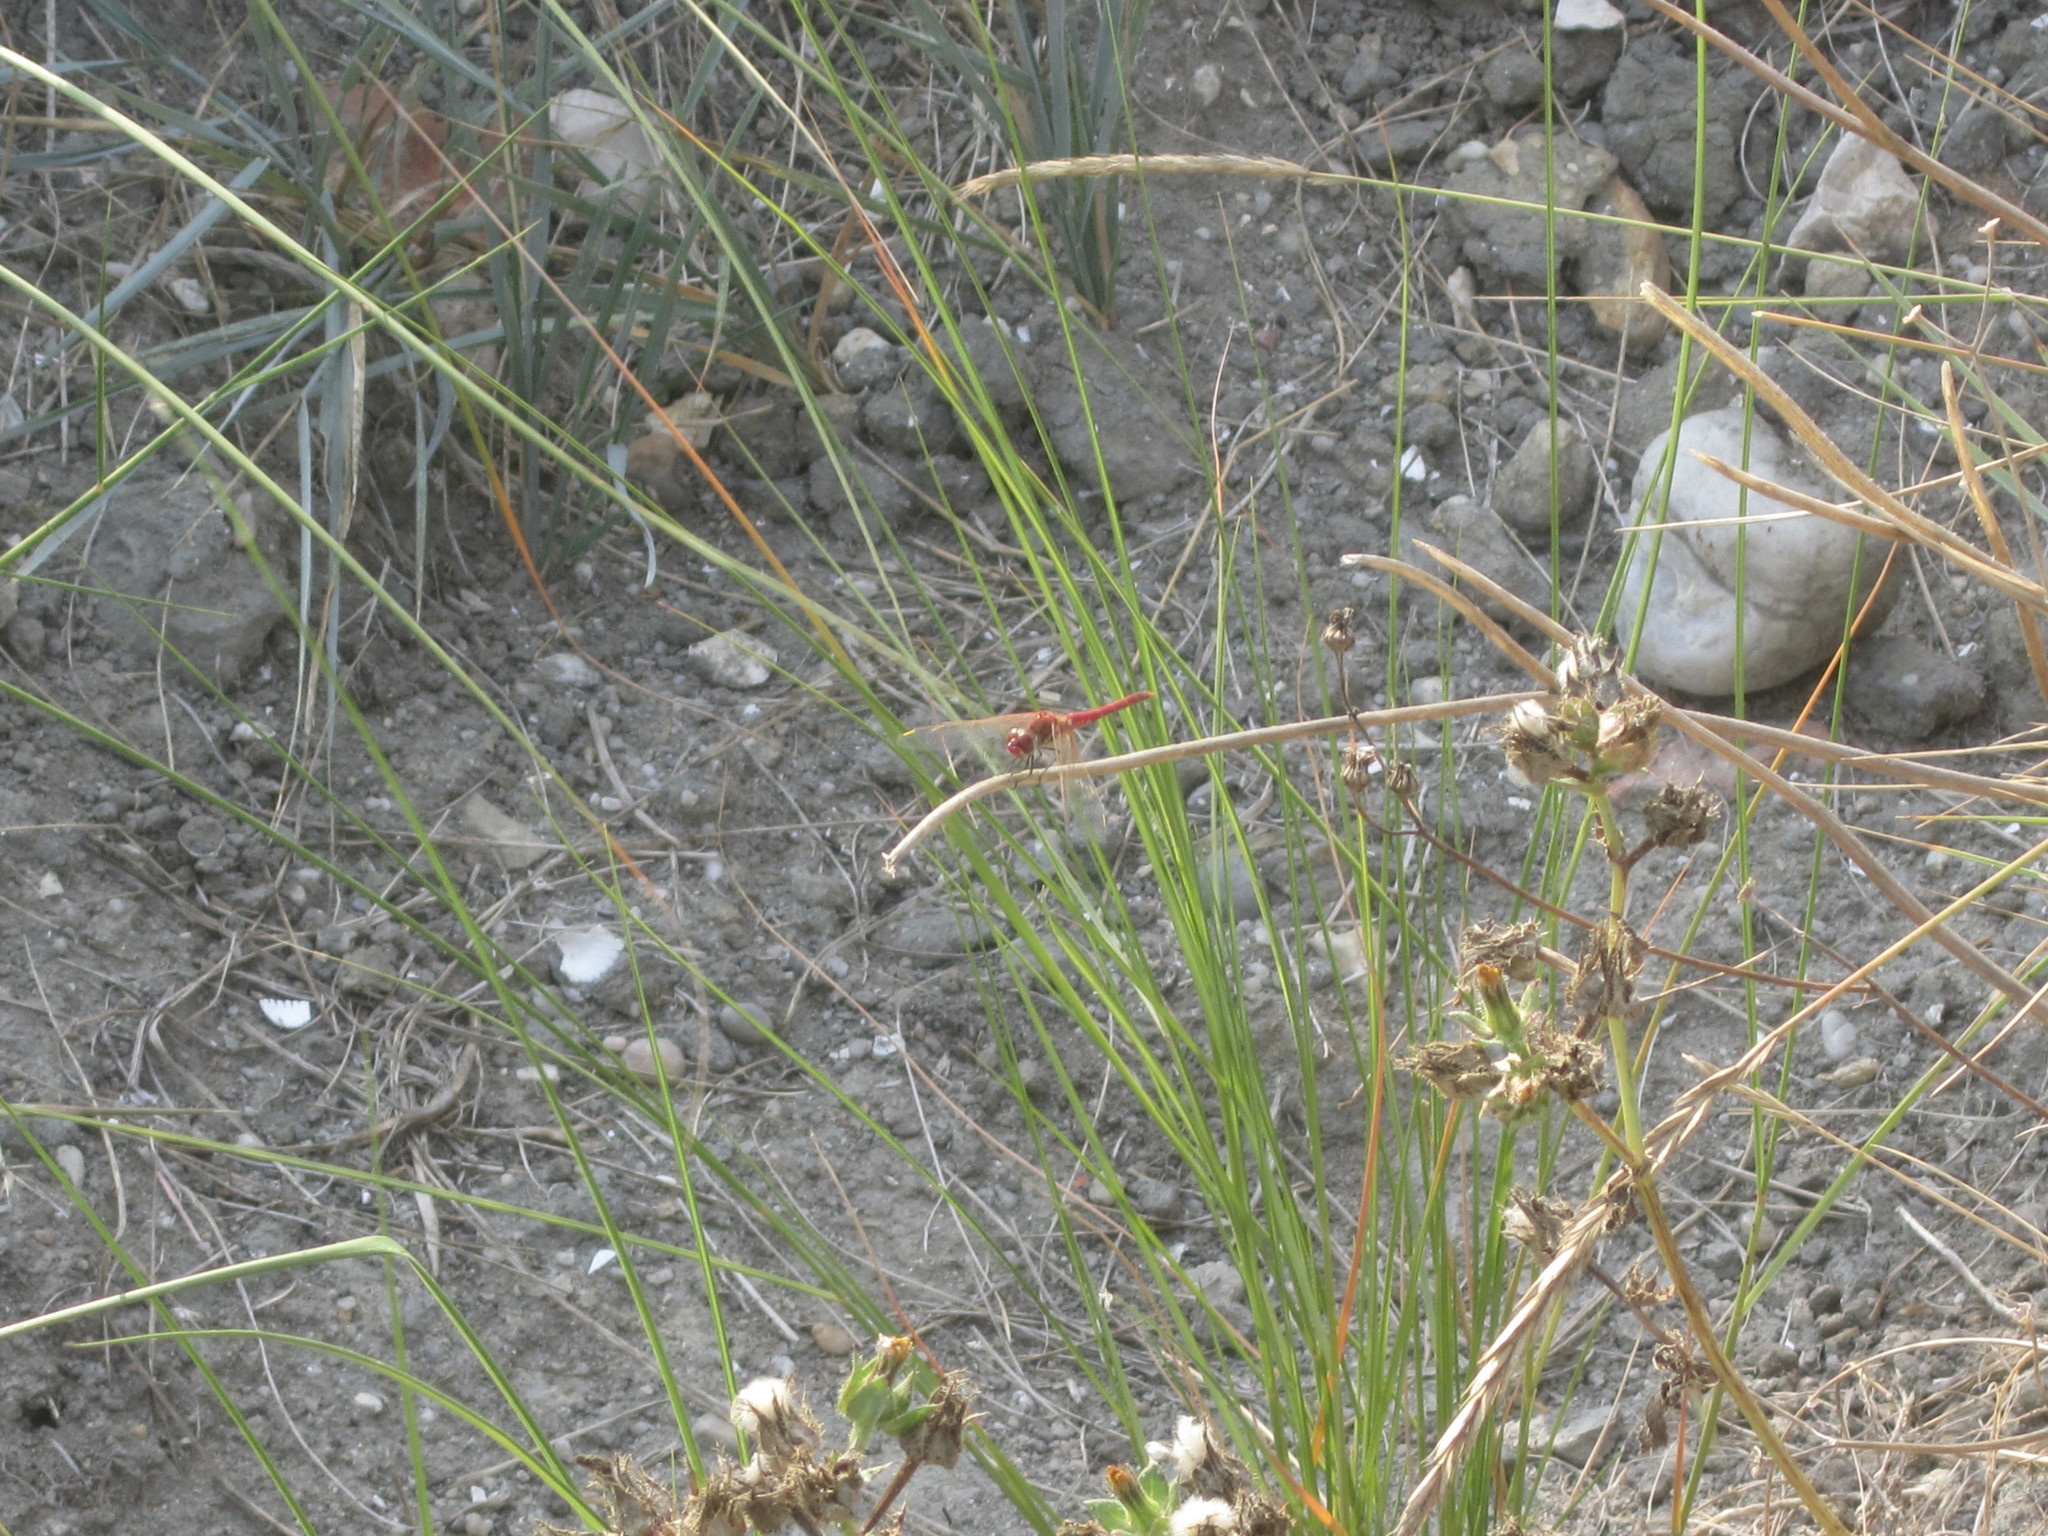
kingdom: Animalia
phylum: Arthropoda
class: Insecta
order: Odonata
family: Libellulidae
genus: Sympetrum
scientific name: Sympetrum fonscolombii
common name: Red-veined darter
